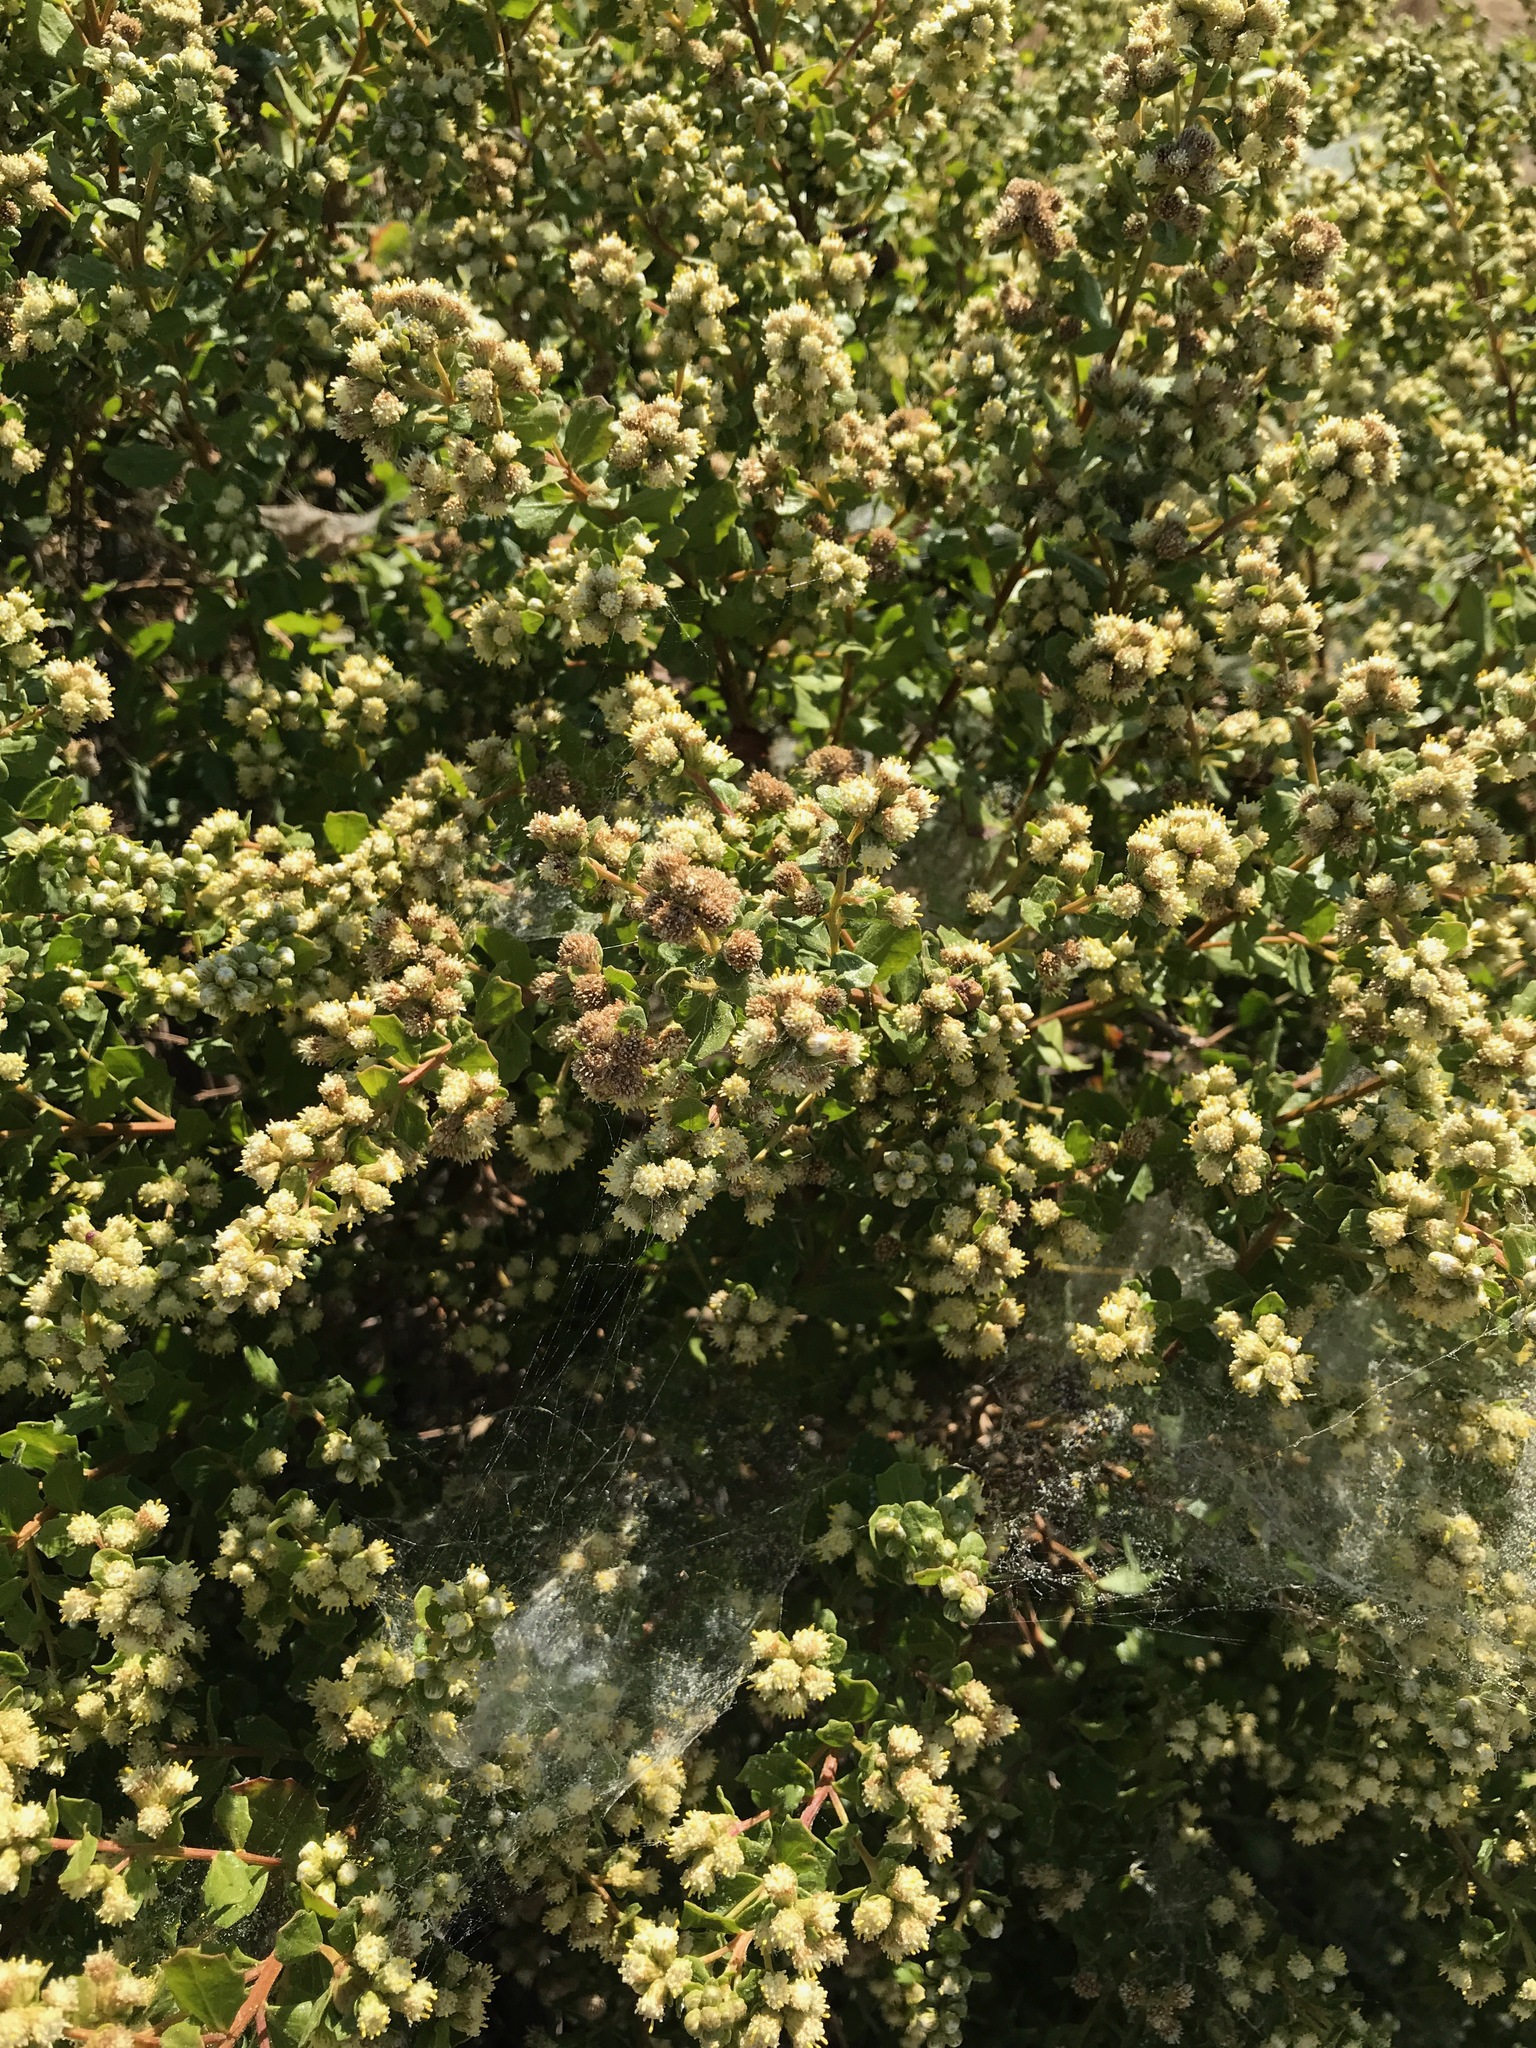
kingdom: Plantae
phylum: Tracheophyta
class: Magnoliopsida
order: Asterales
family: Asteraceae
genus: Baccharis
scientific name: Baccharis pilularis
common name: Coyotebrush
